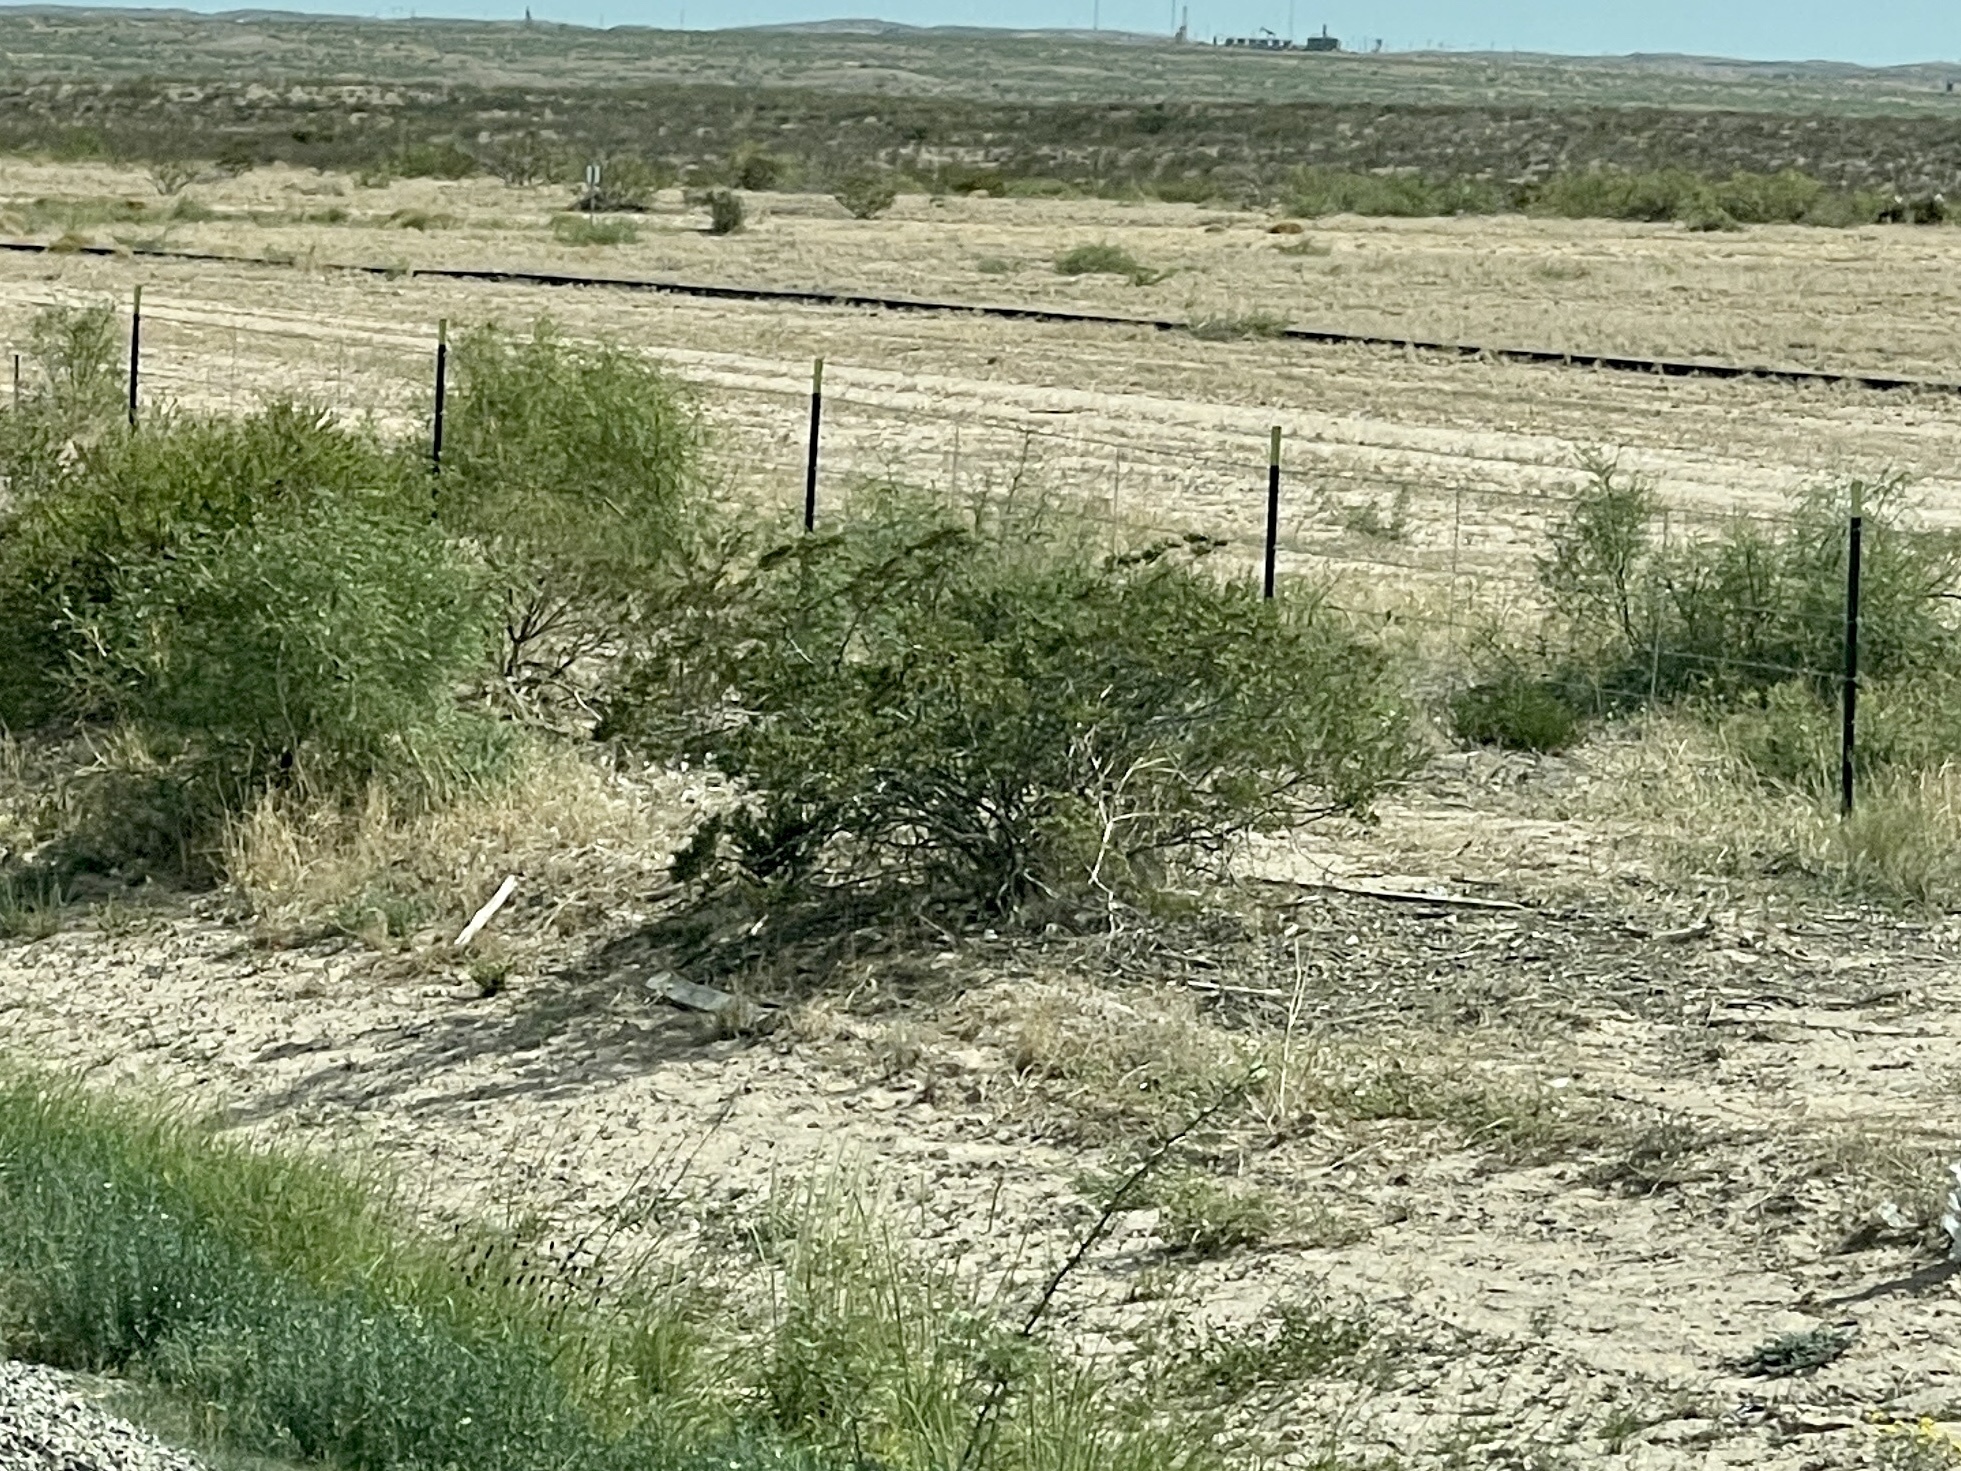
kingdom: Plantae
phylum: Tracheophyta
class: Magnoliopsida
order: Zygophyllales
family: Zygophyllaceae
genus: Larrea
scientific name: Larrea tridentata
